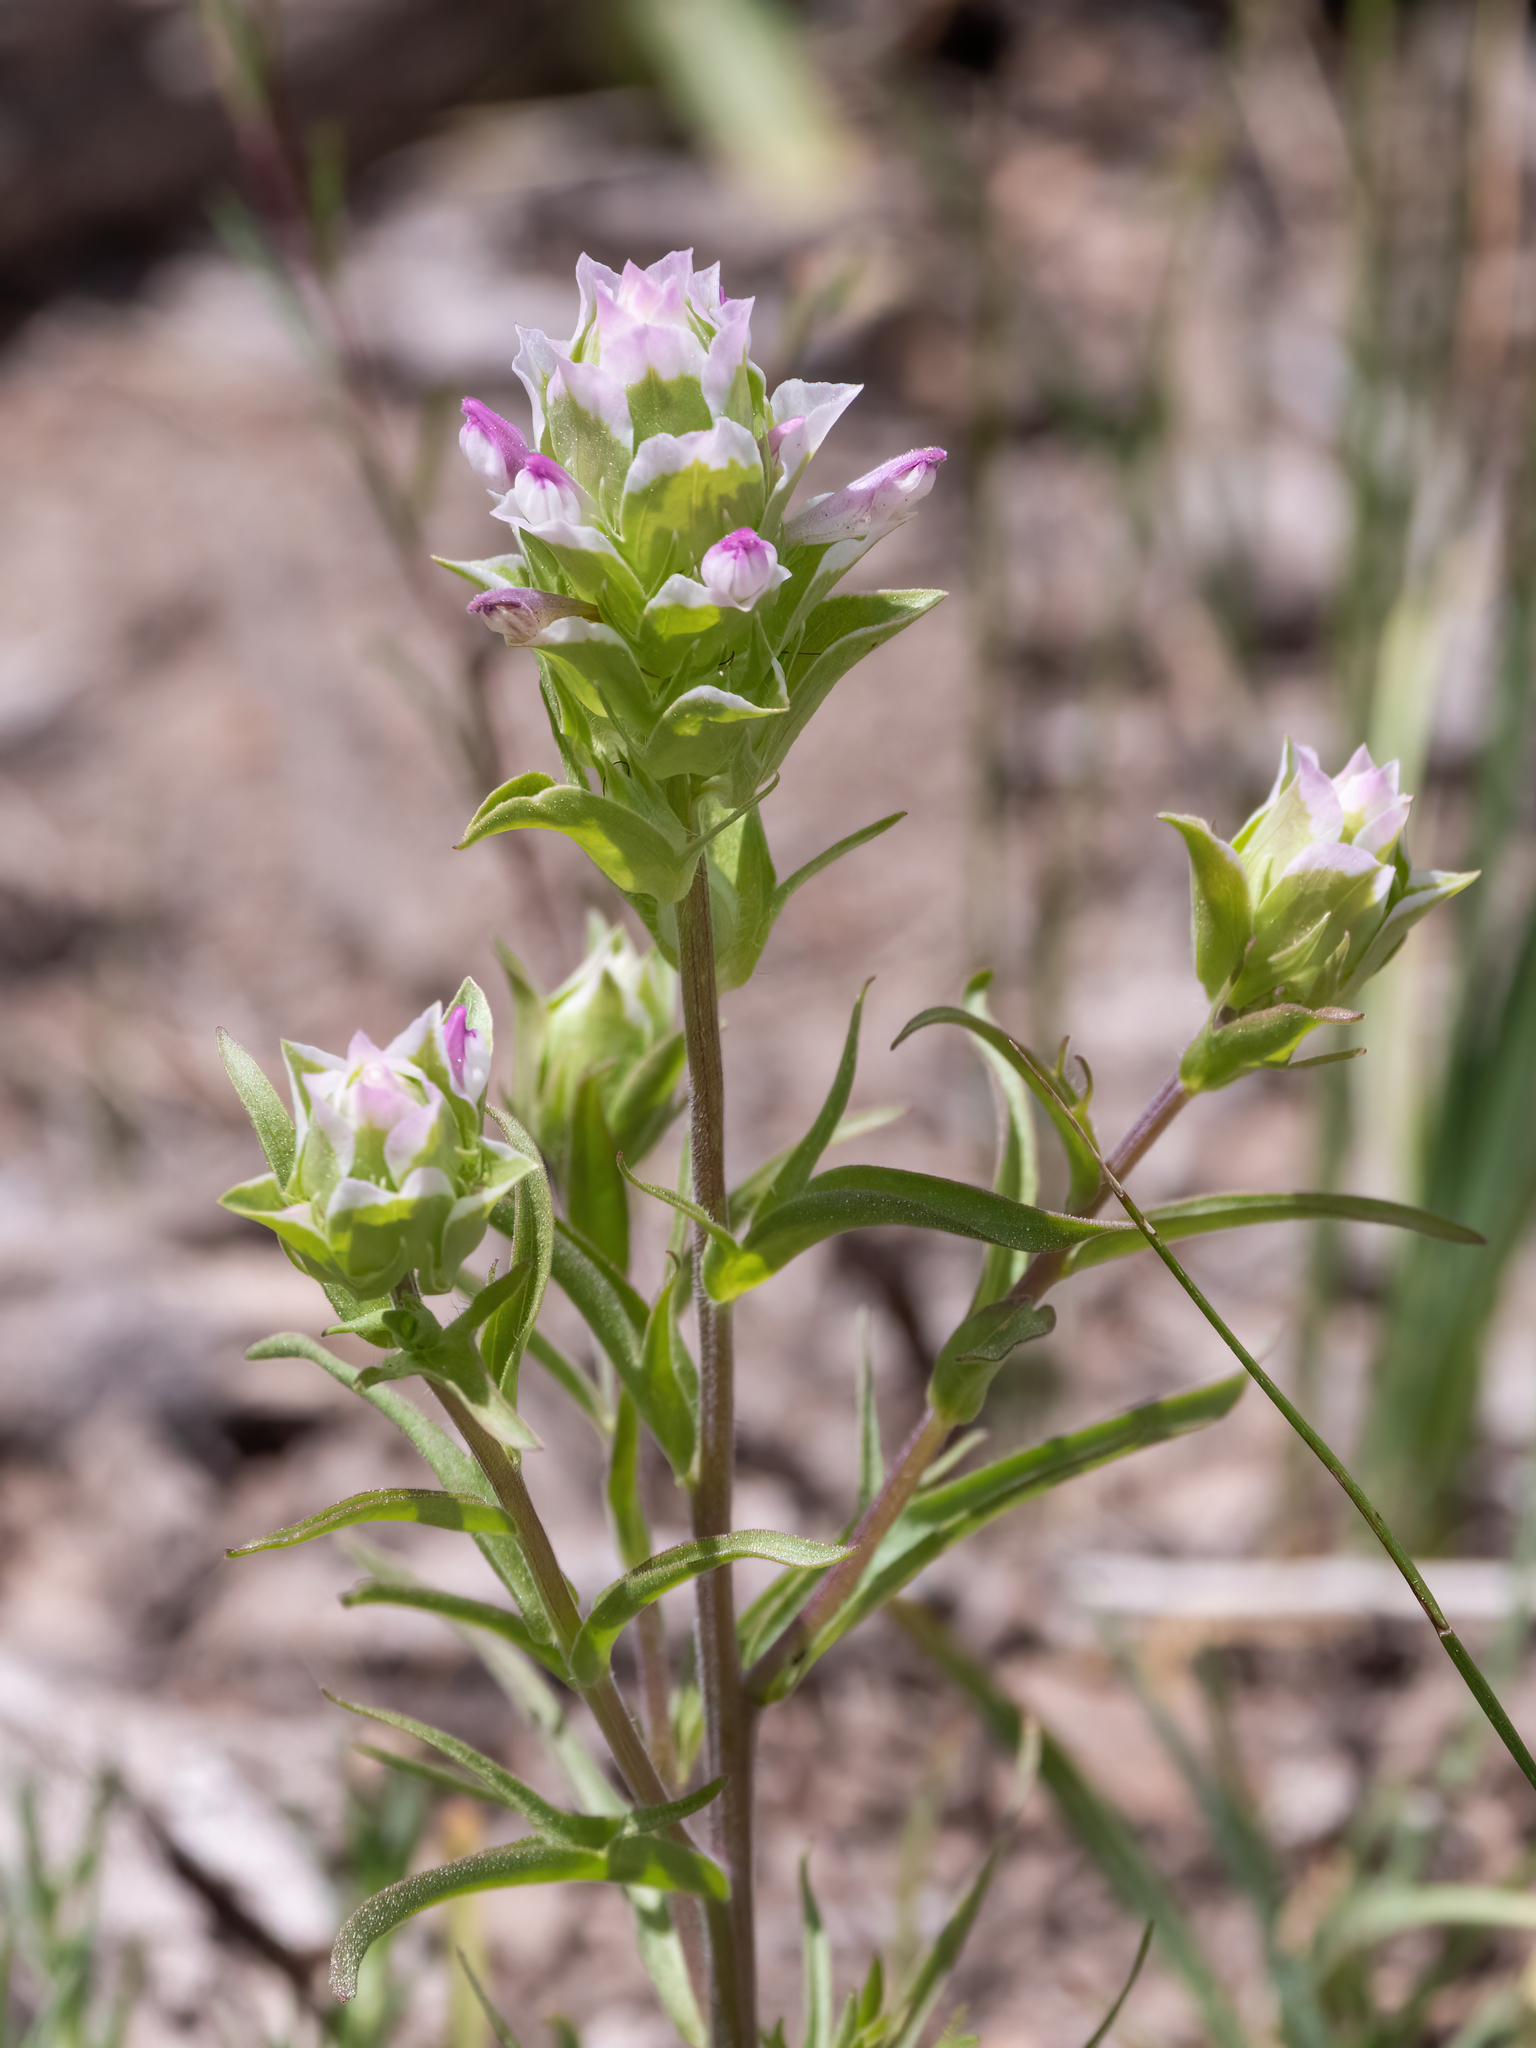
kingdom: Plantae
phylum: Tracheophyta
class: Magnoliopsida
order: Lamiales
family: Orobanchaceae
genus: Orthocarpus
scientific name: Orthocarpus cuspidatus
